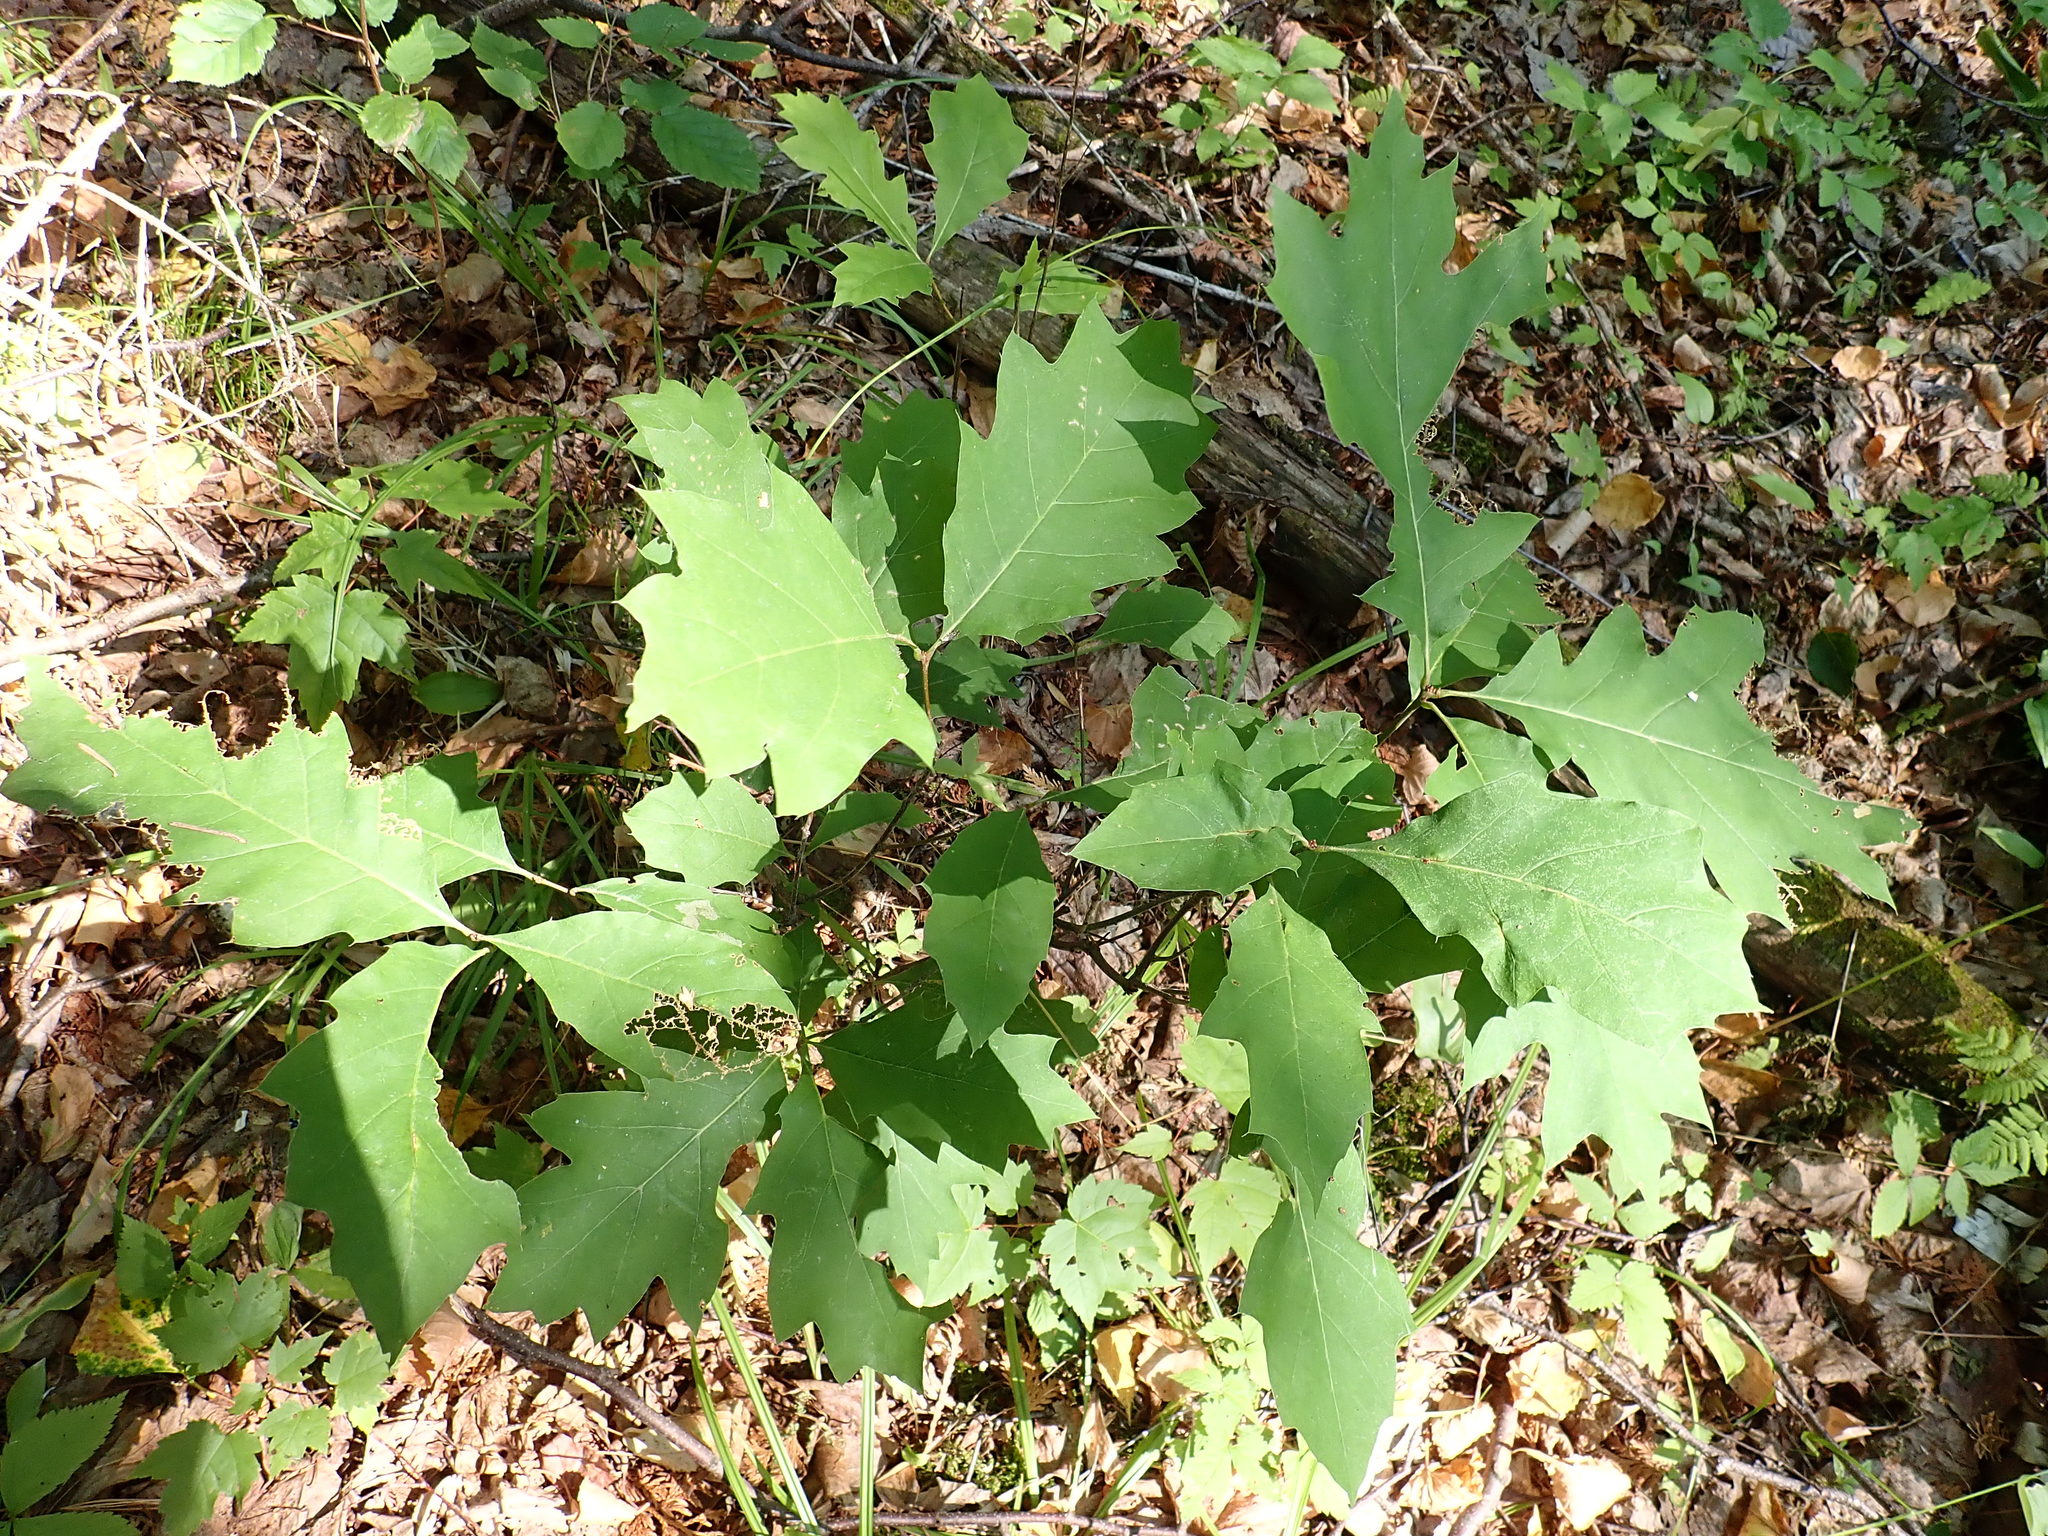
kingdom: Plantae
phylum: Tracheophyta
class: Magnoliopsida
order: Fagales
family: Fagaceae
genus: Quercus
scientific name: Quercus ellipsoidalis
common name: Hill's oak
